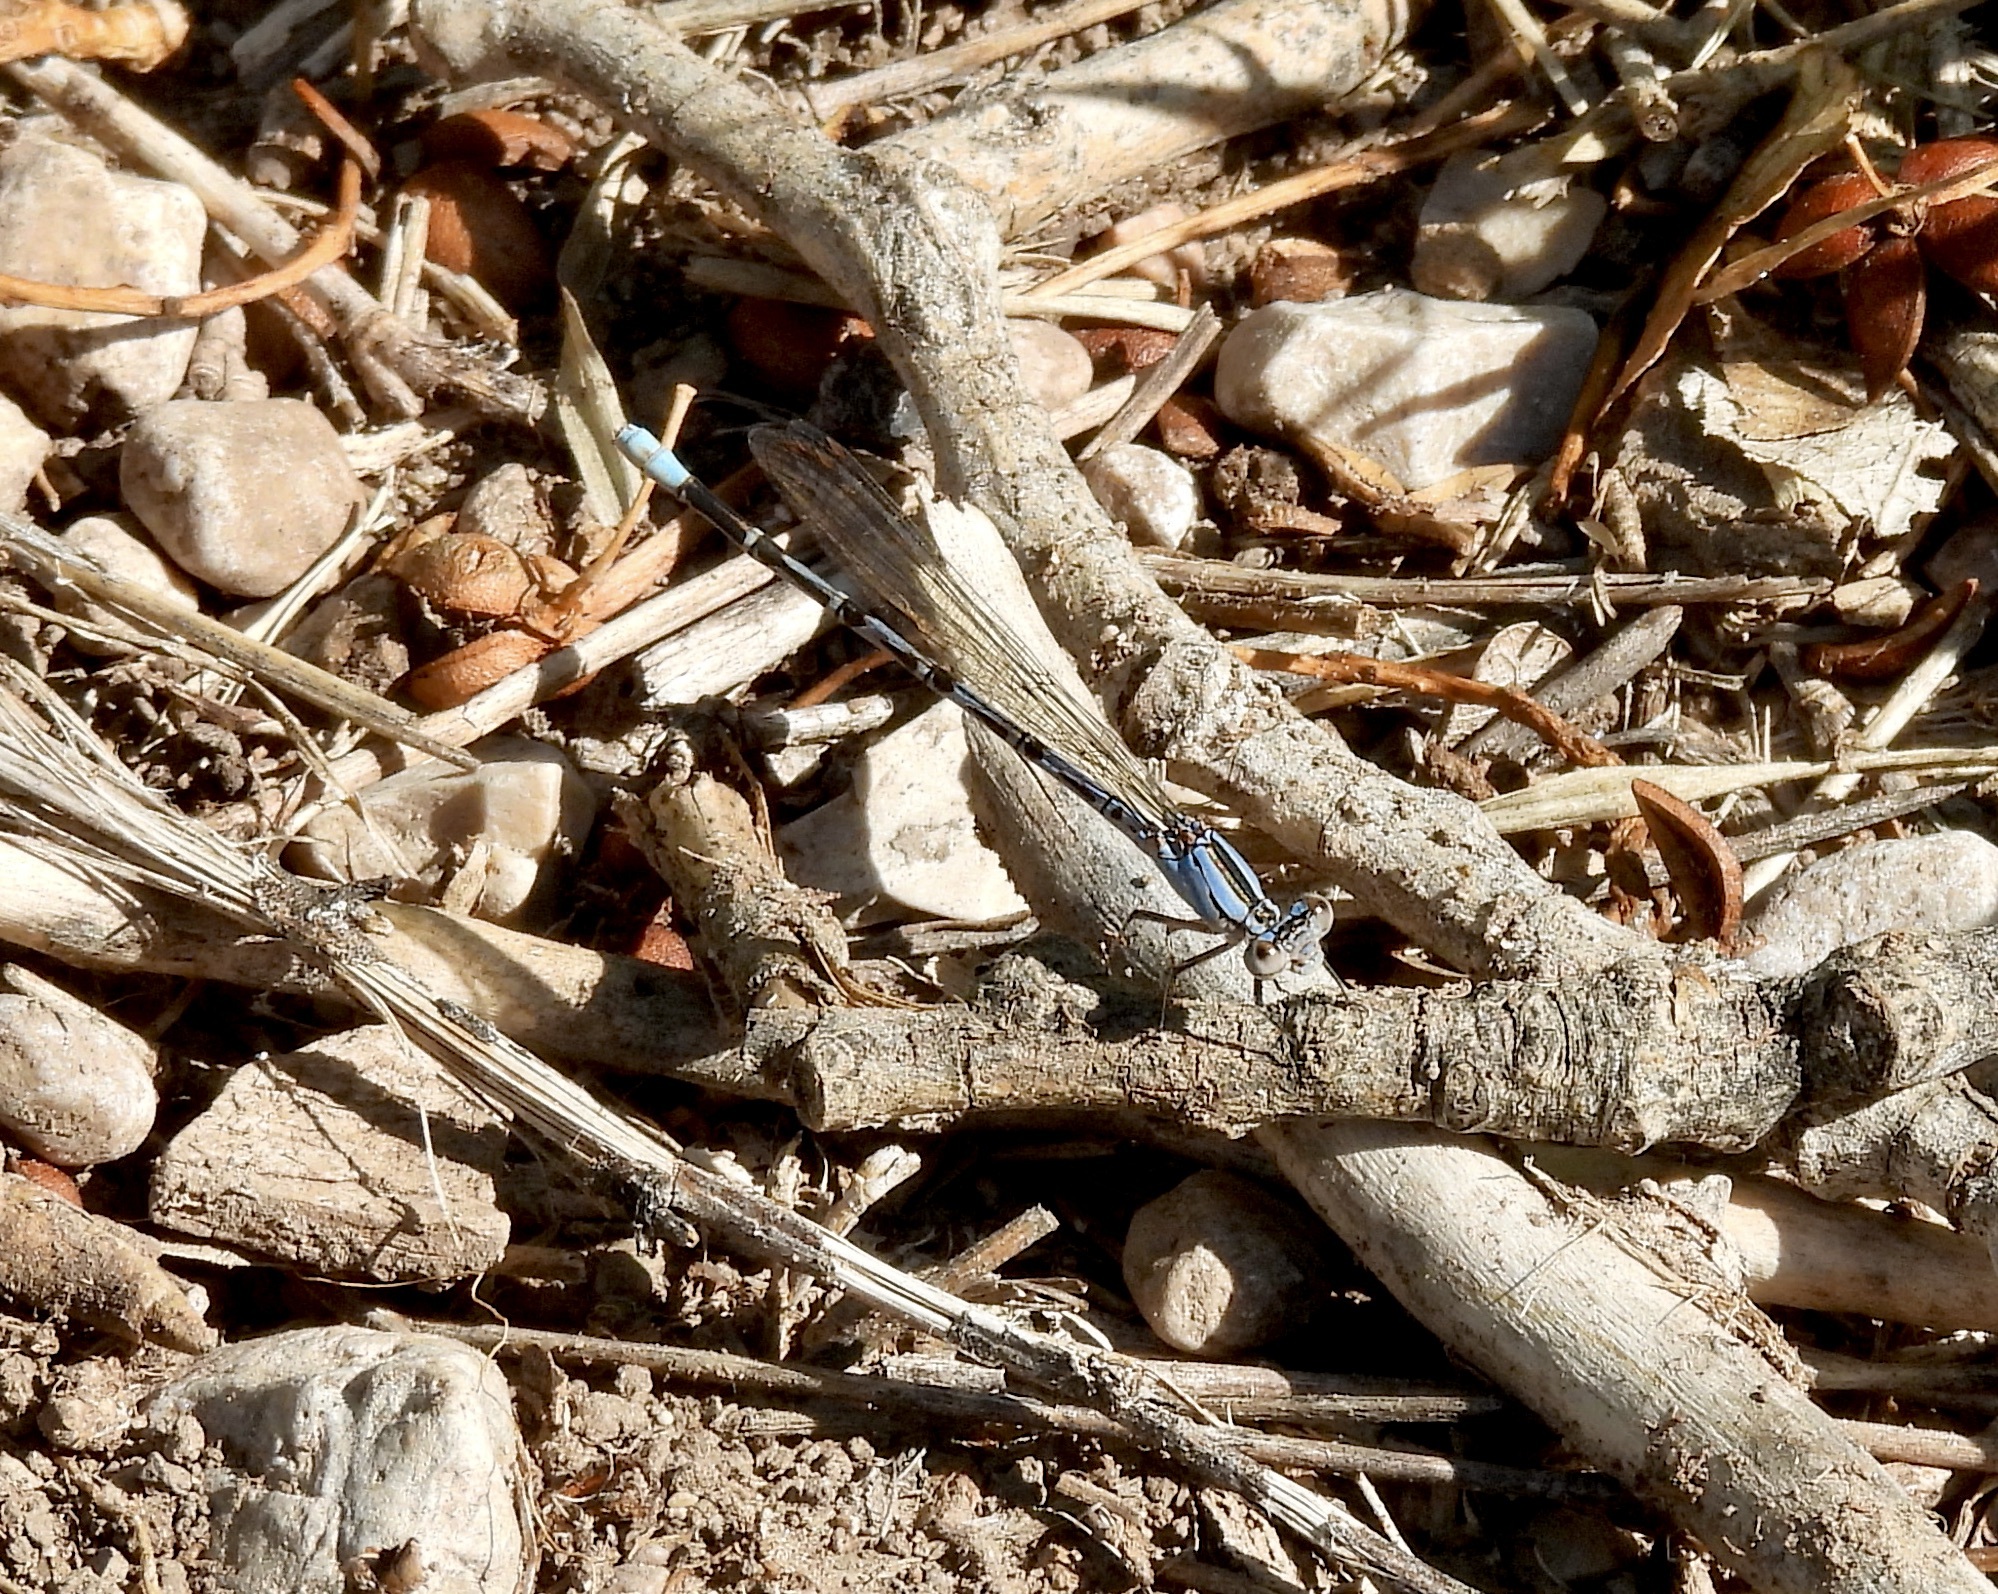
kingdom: Animalia
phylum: Arthropoda
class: Insecta
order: Odonata
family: Coenagrionidae
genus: Argia
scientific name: Argia funebris
